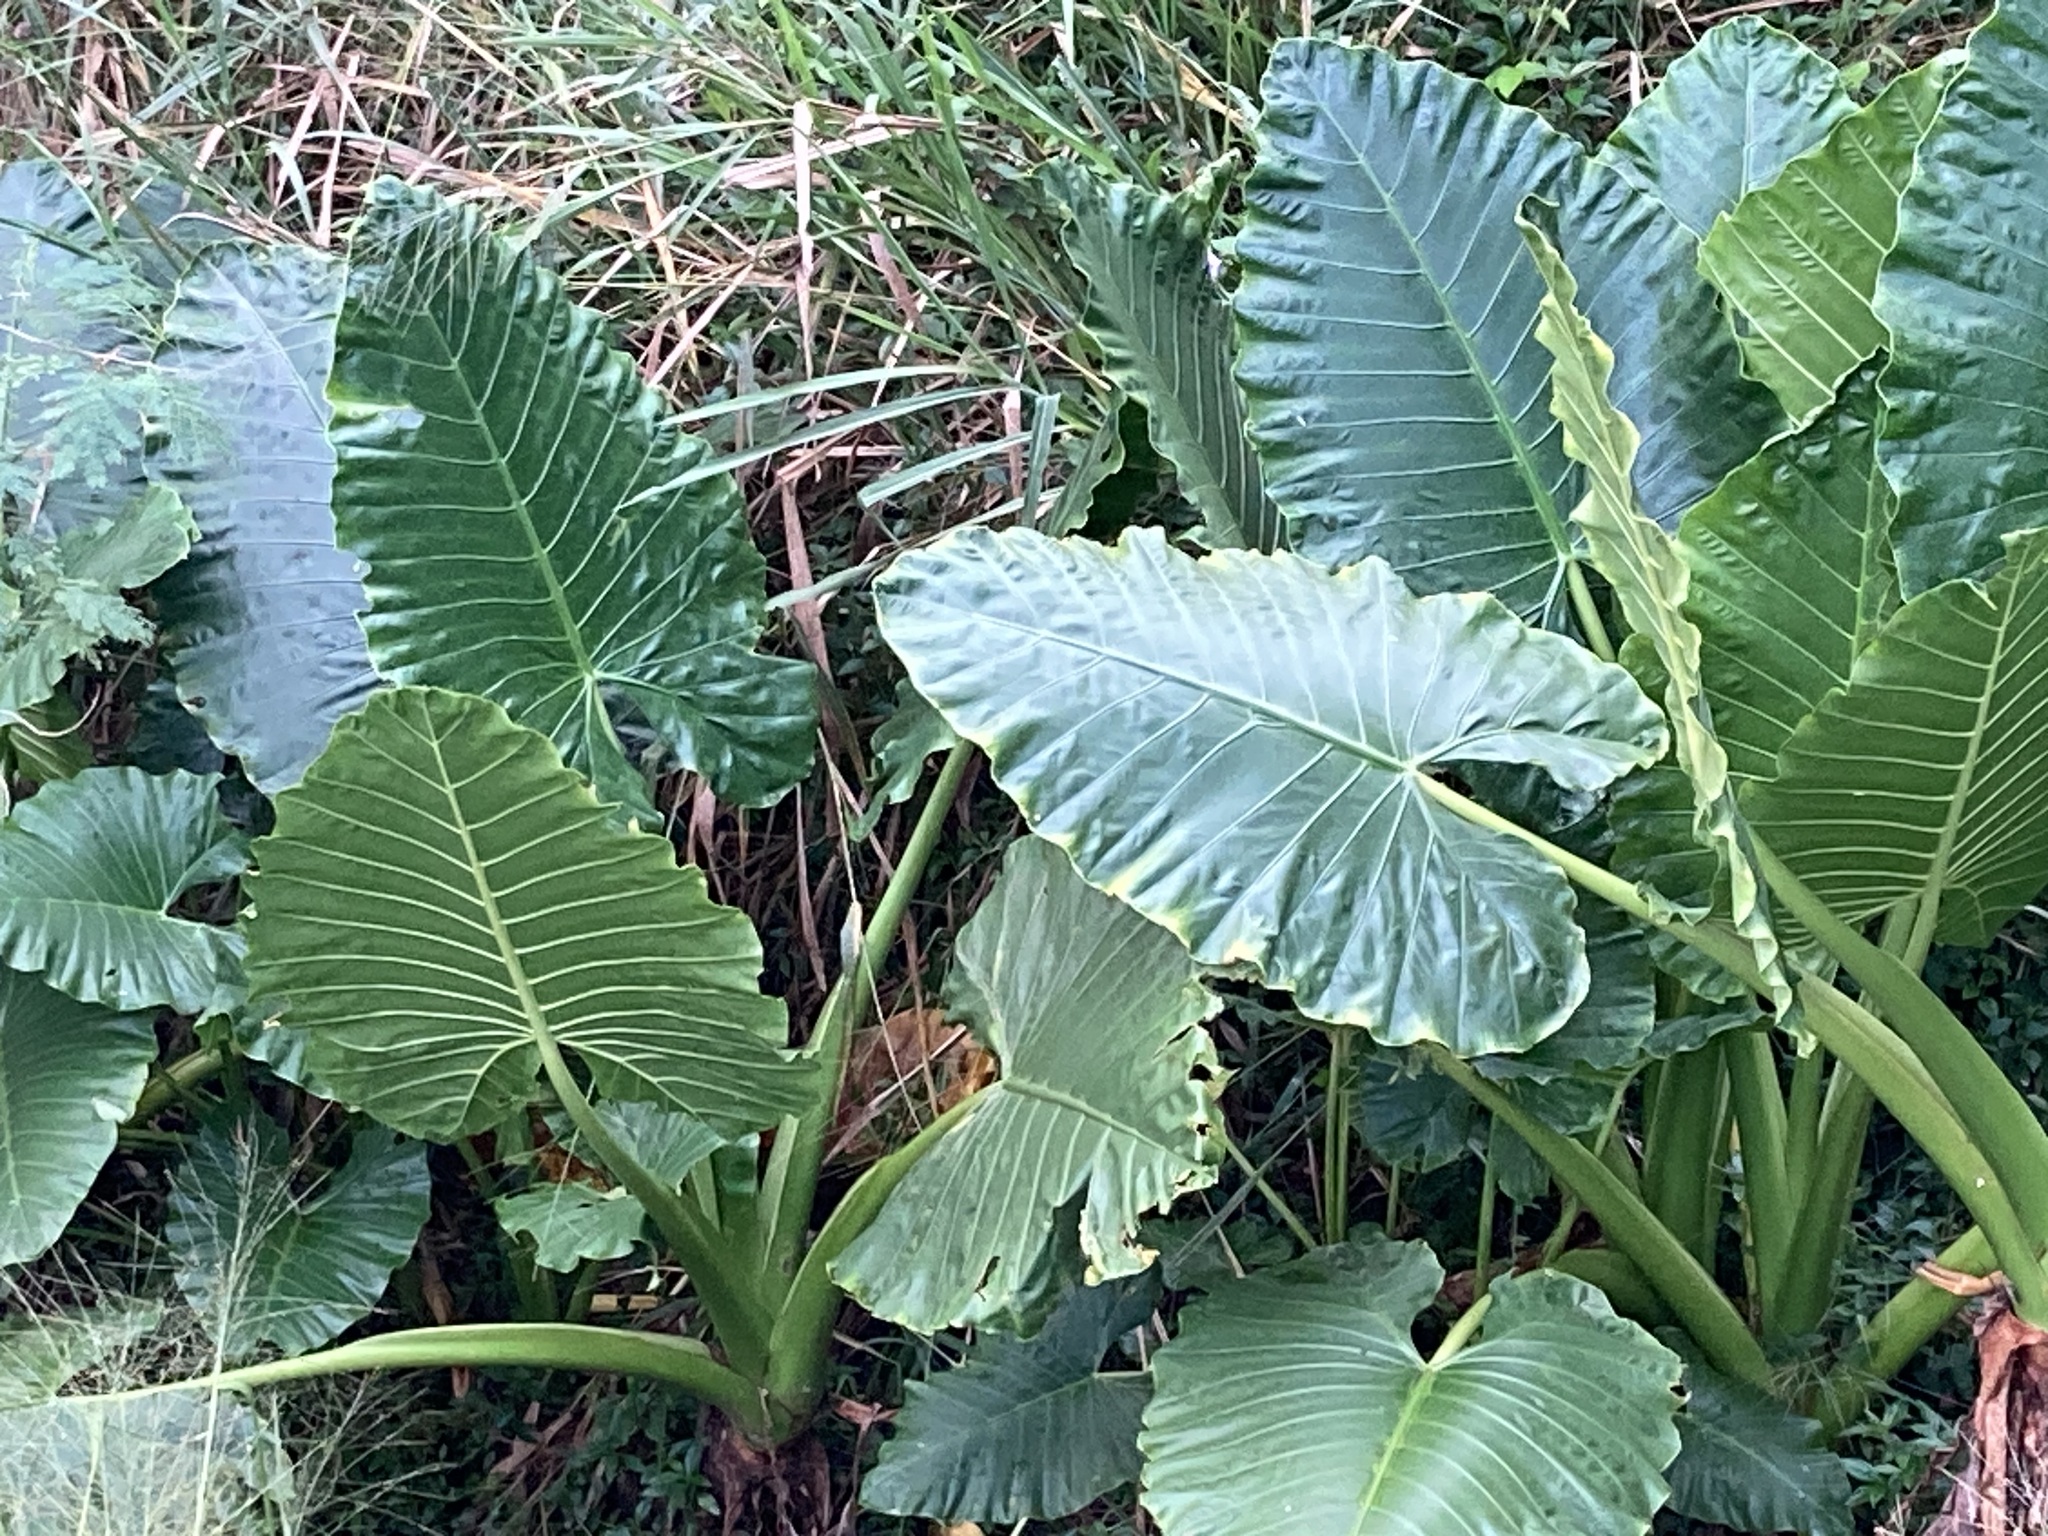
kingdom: Plantae
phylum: Tracheophyta
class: Liliopsida
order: Alismatales
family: Araceae
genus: Alocasia
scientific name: Alocasia macrorrhizos
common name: Giant taro
